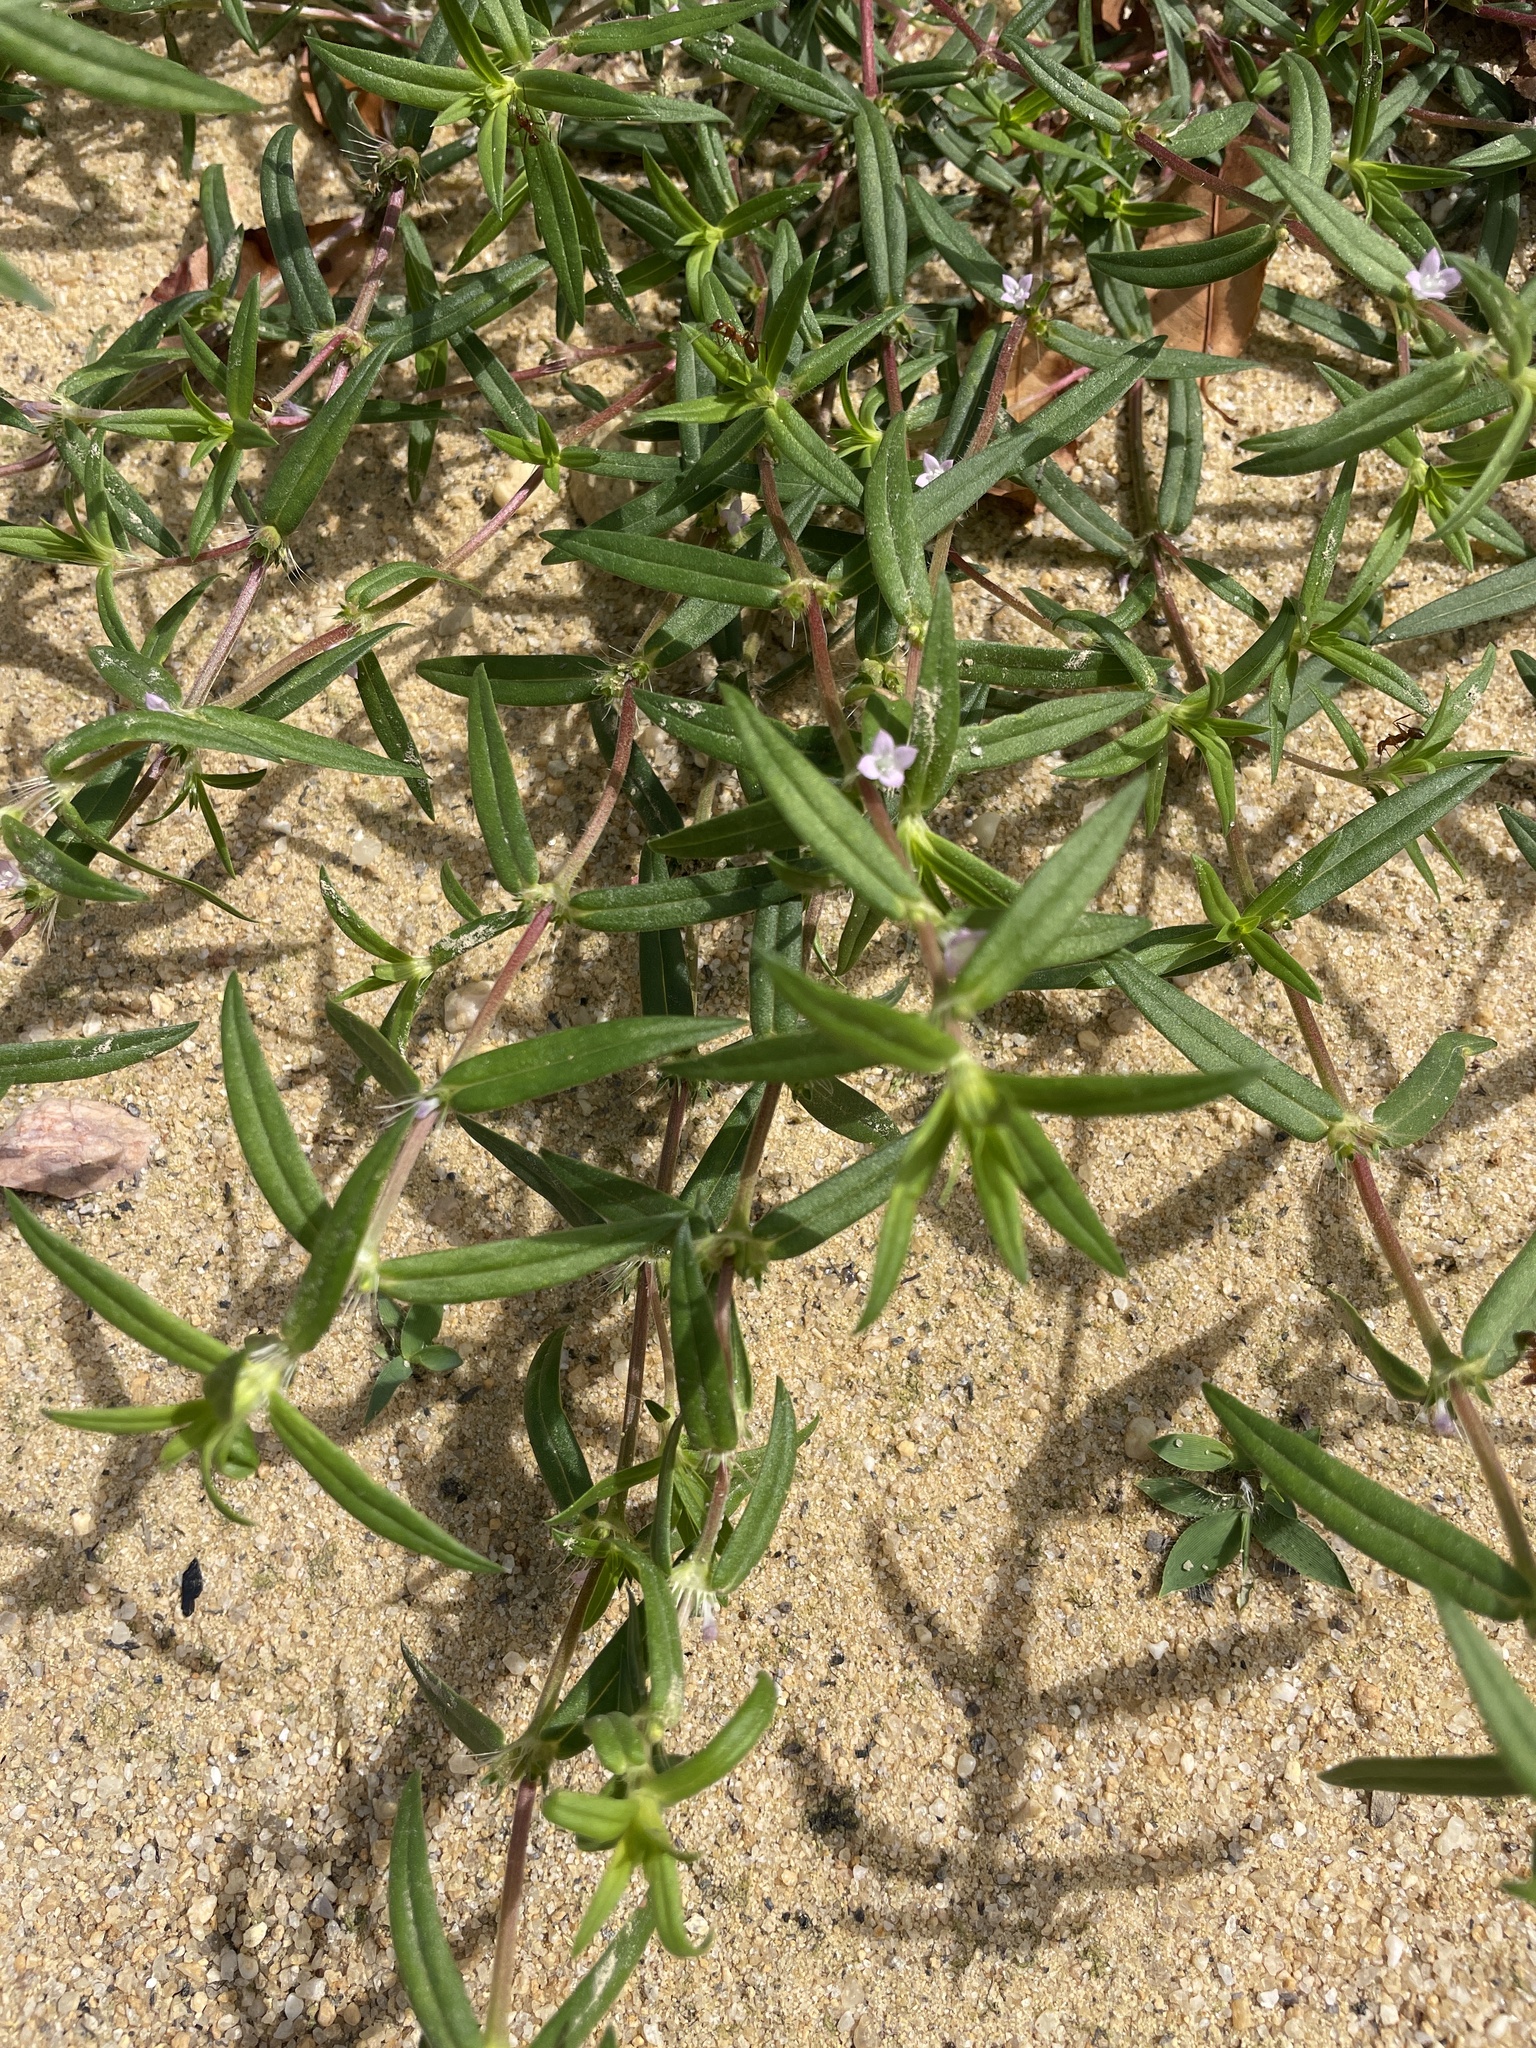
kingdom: Plantae
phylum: Tracheophyta
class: Magnoliopsida
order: Gentianales
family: Rubiaceae
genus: Hexasepalum
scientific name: Hexasepalum teres
